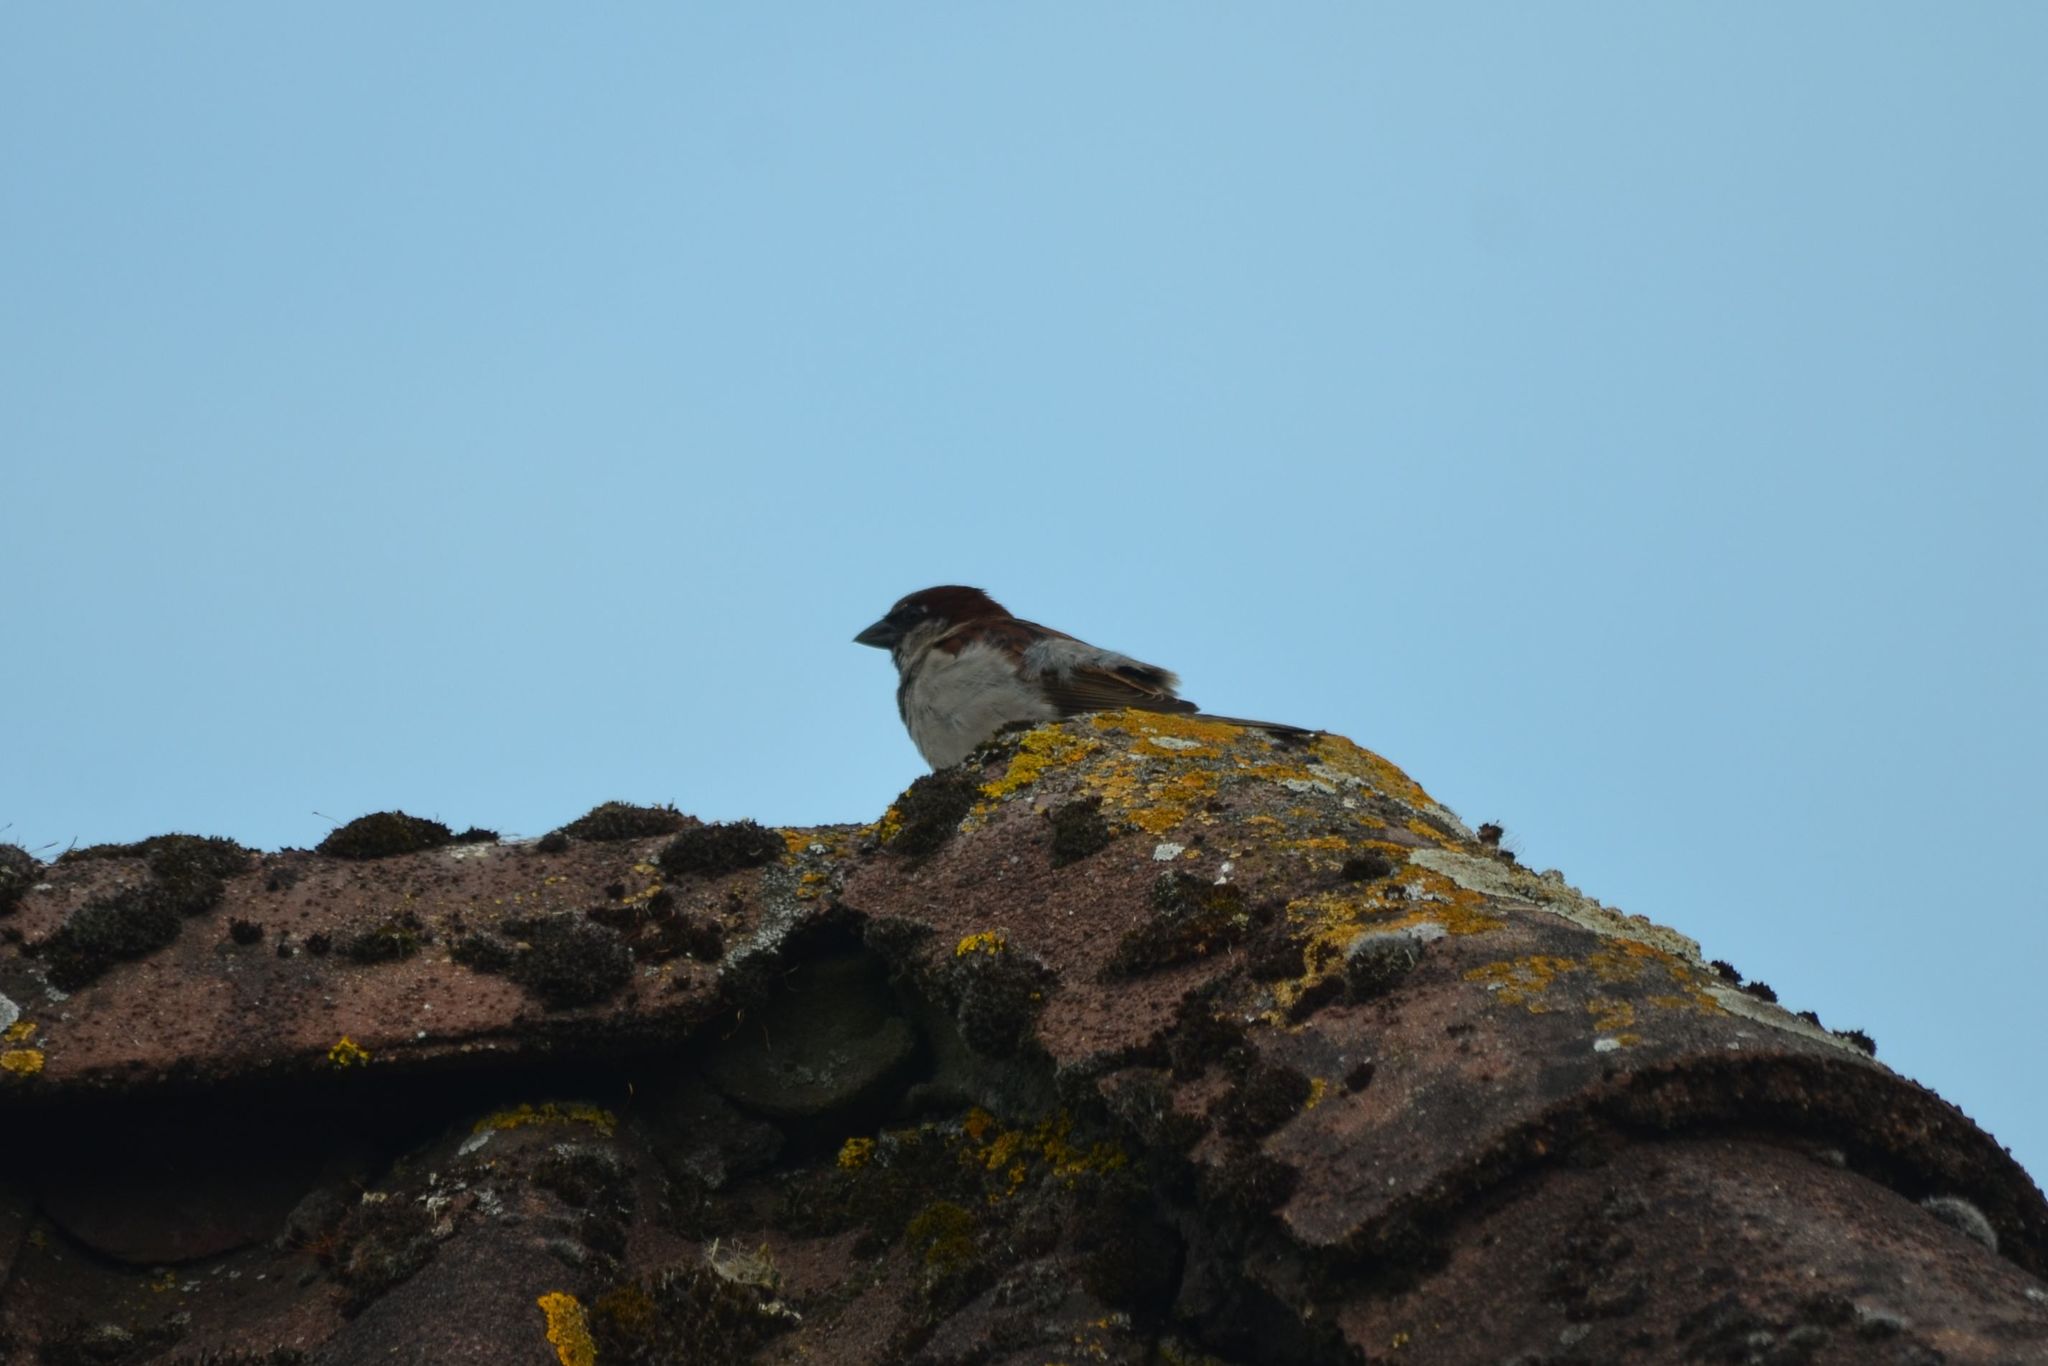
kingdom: Animalia
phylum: Chordata
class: Aves
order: Passeriformes
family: Passeridae
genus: Passer
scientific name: Passer domesticus
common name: House sparrow
